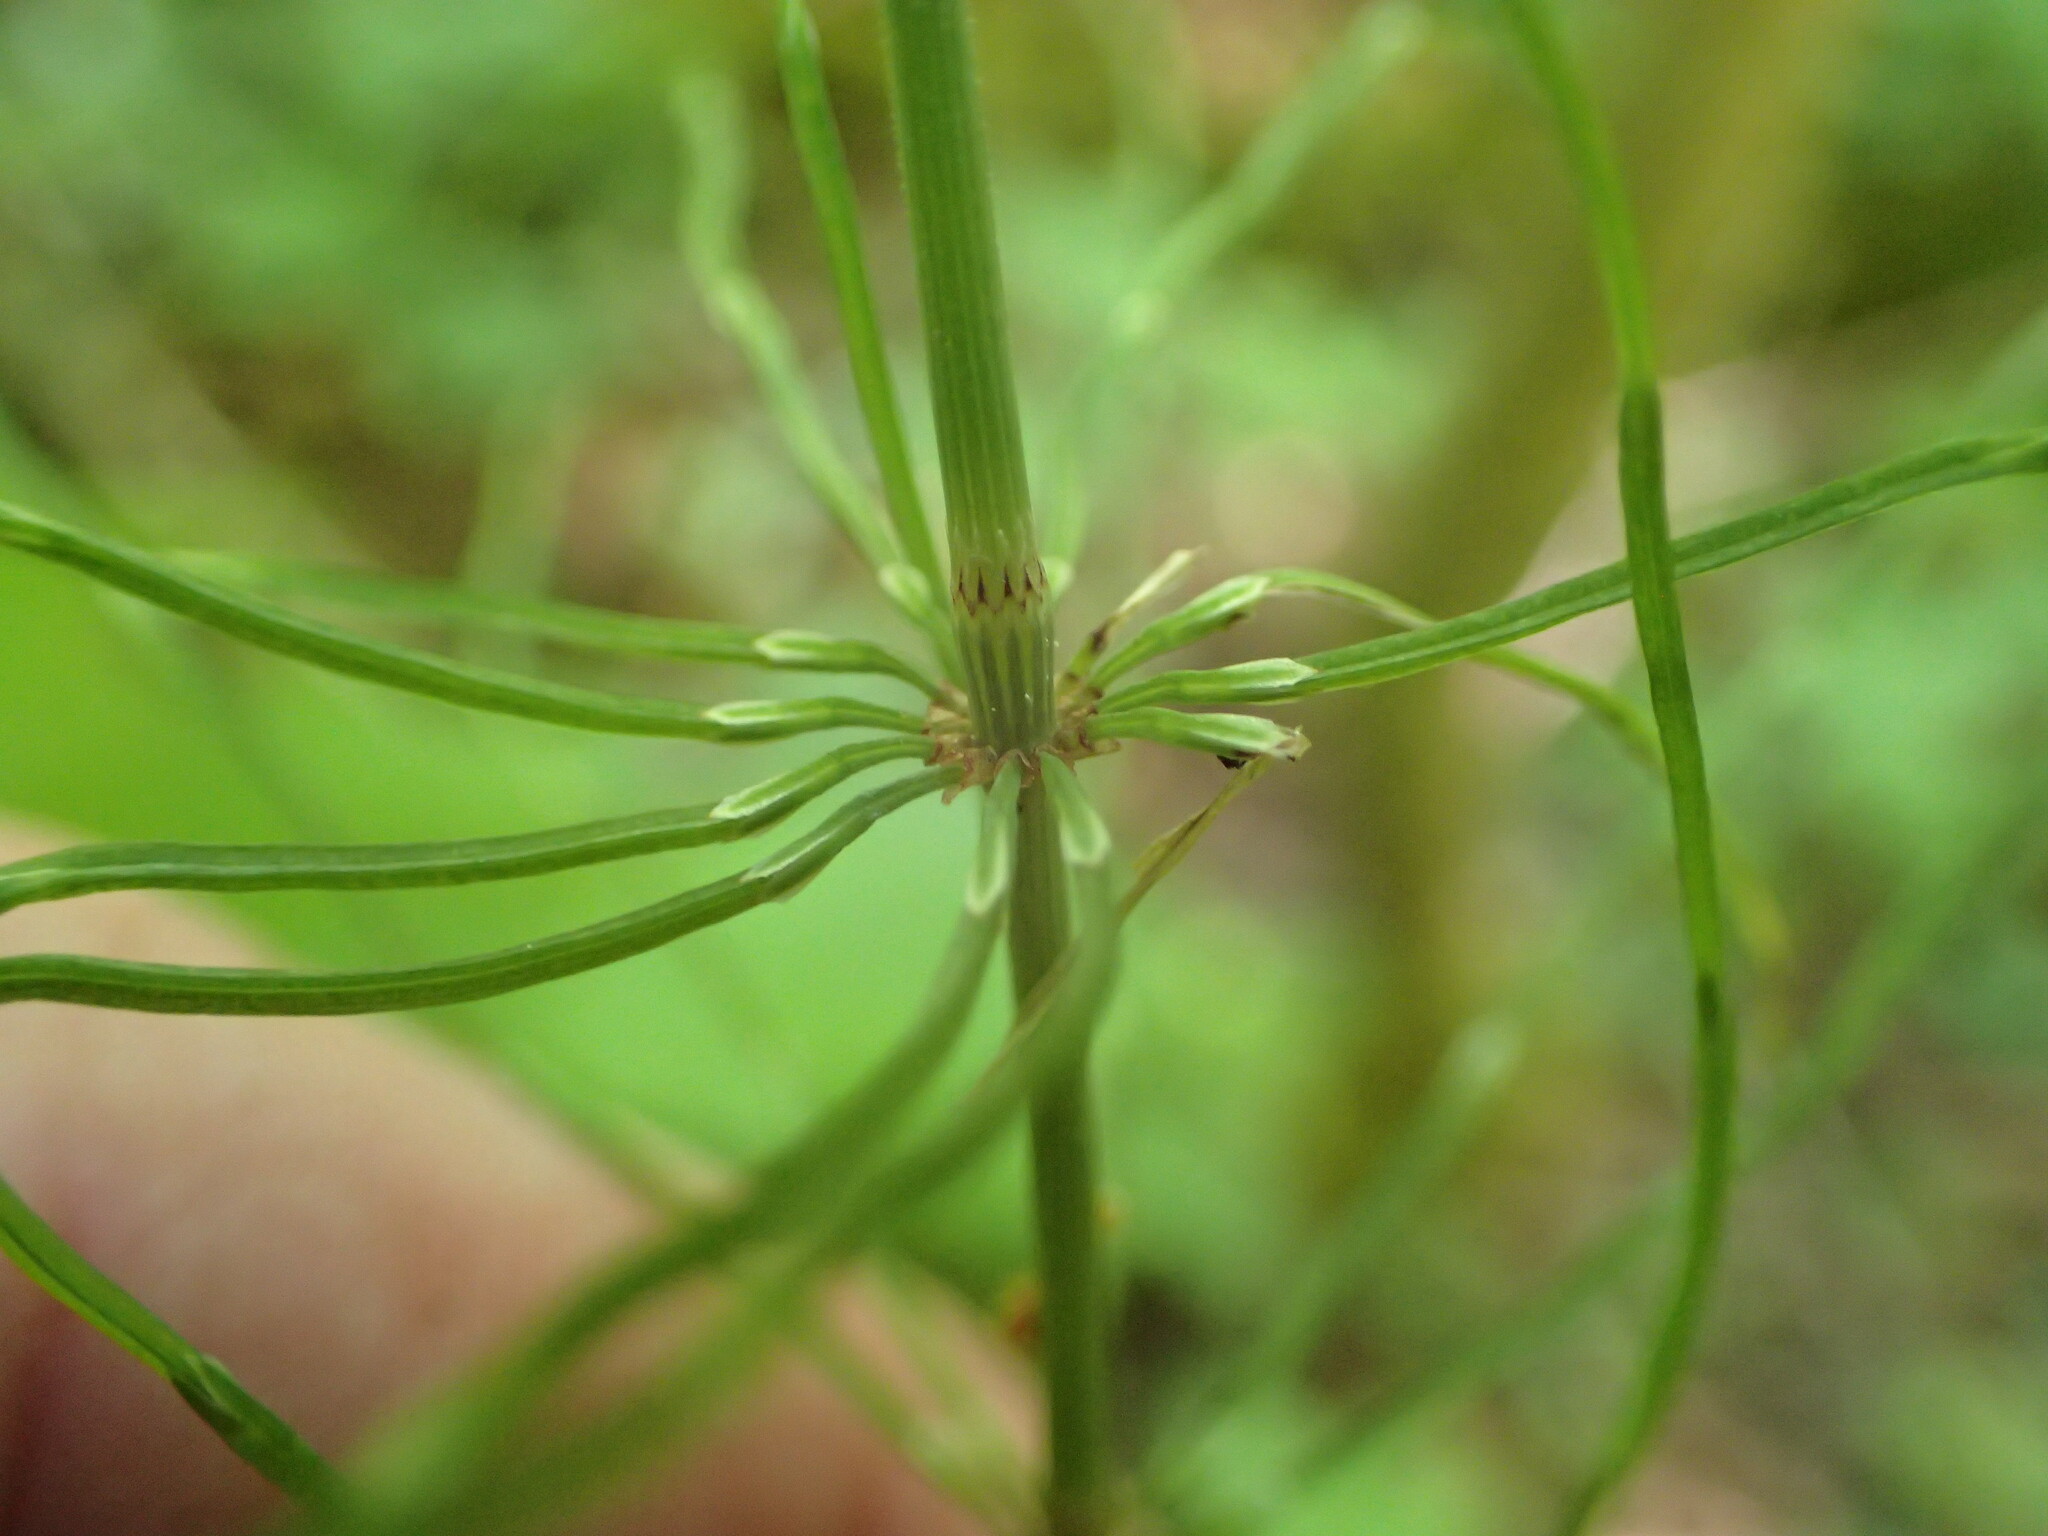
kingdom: Plantae
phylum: Tracheophyta
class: Polypodiopsida
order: Equisetales
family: Equisetaceae
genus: Equisetum
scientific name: Equisetum pratense
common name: Meadow horsetail
